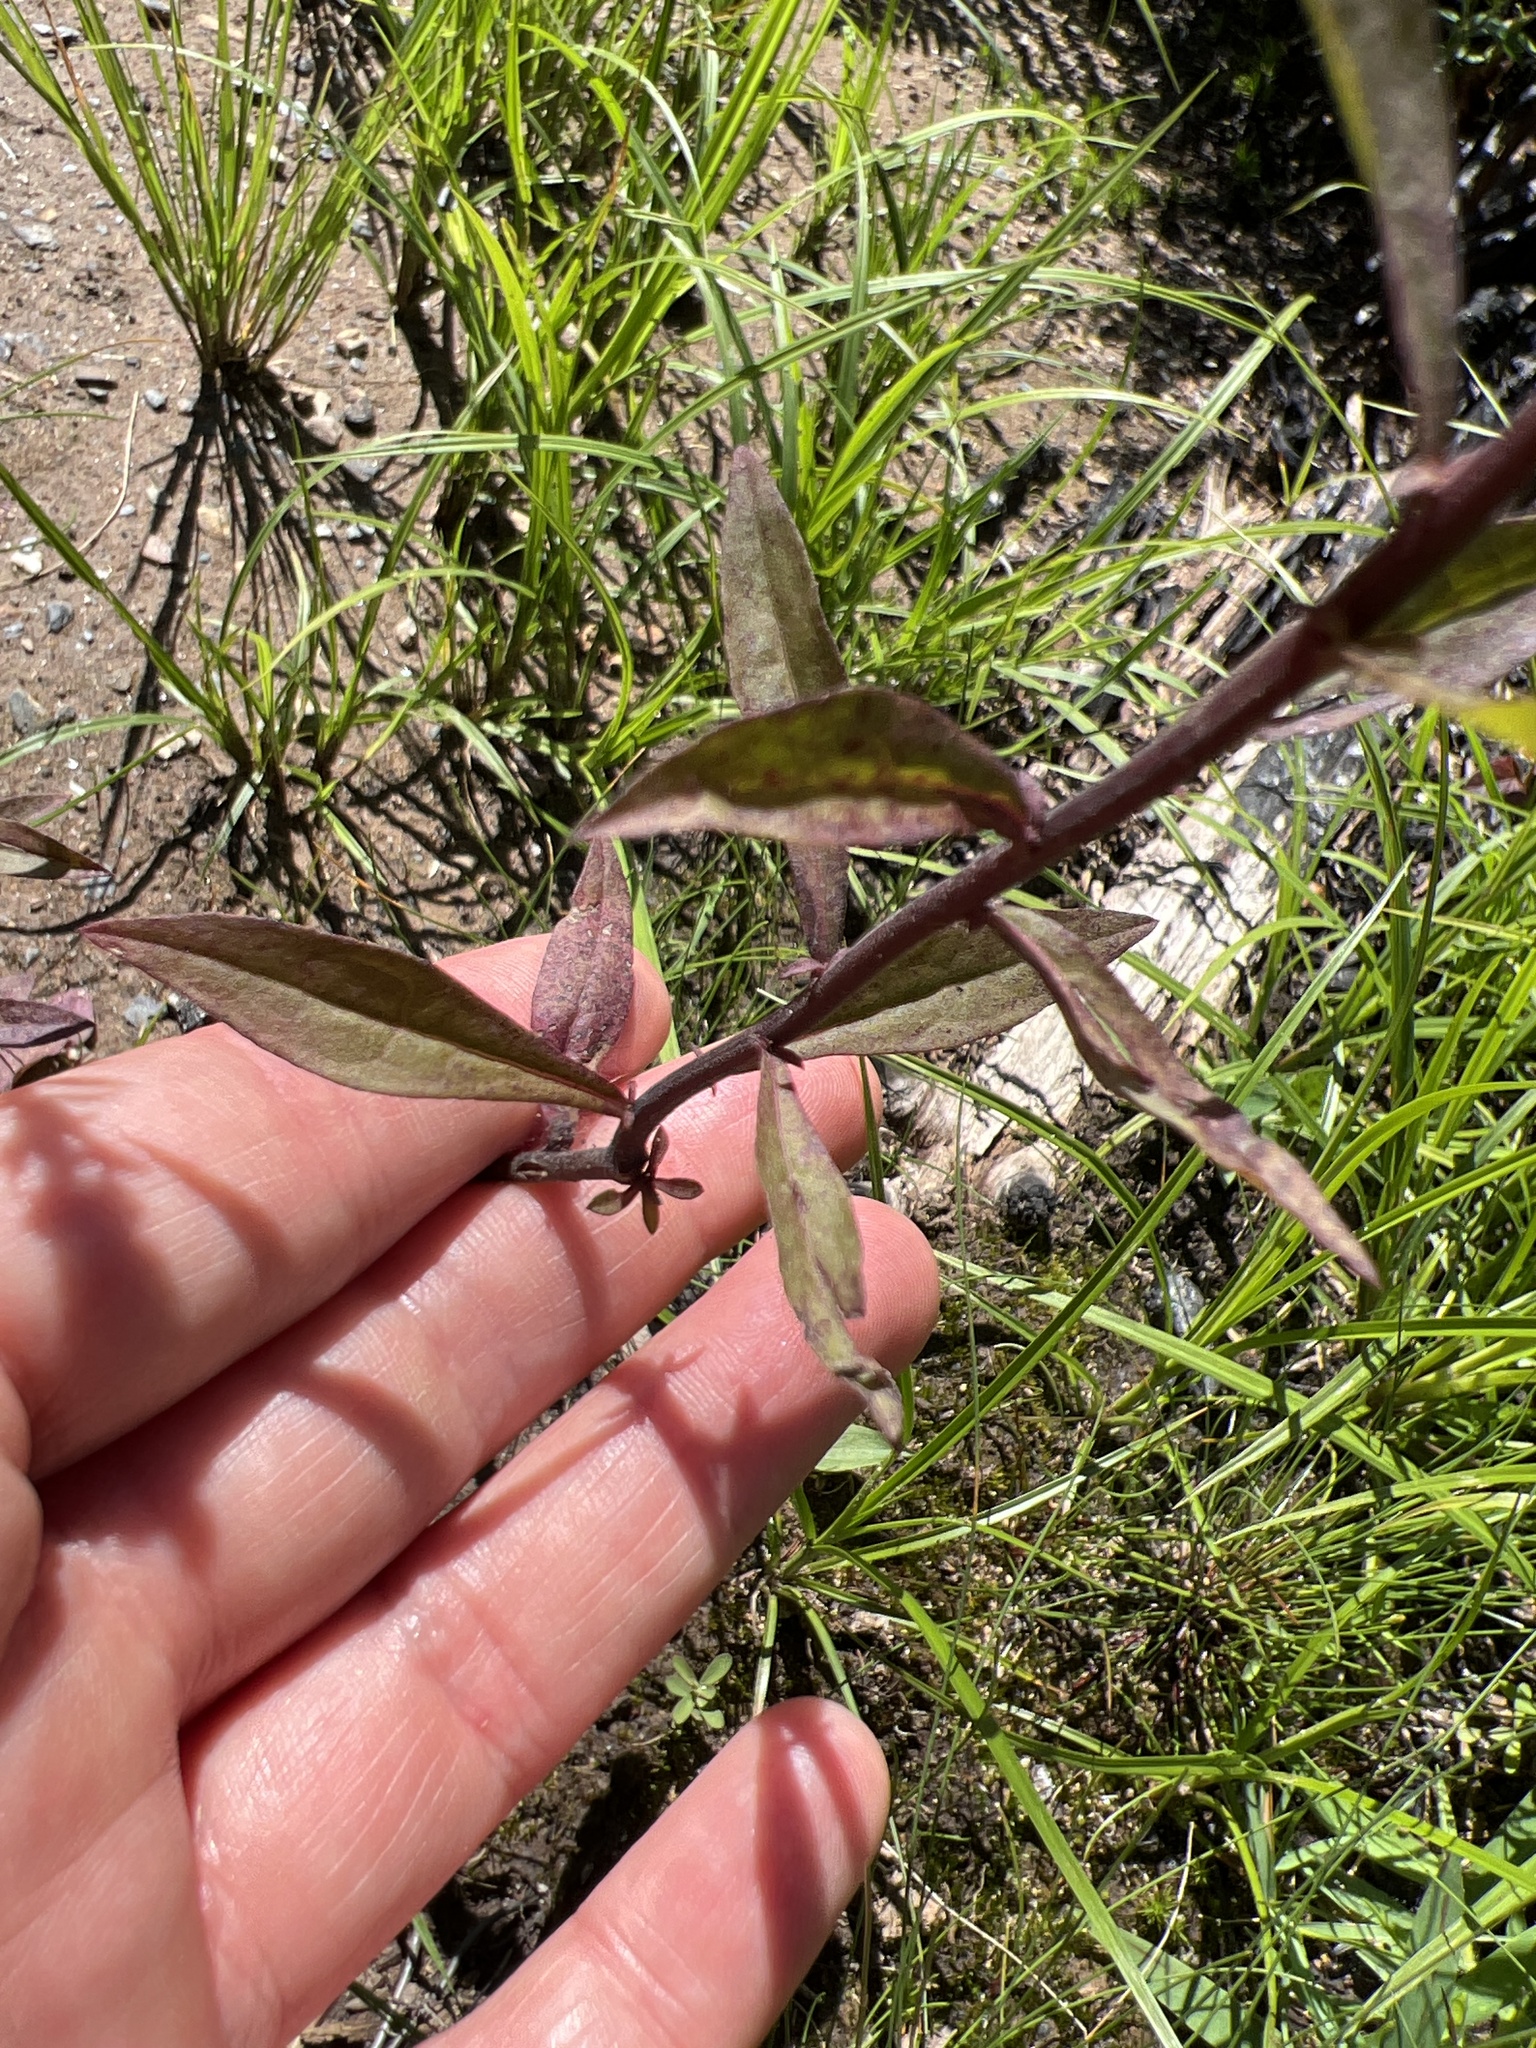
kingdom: Plantae
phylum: Tracheophyta
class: Magnoliopsida
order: Asterales
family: Asteraceae
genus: Solidago
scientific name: Solidago puberula
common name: Downy goldenrod
